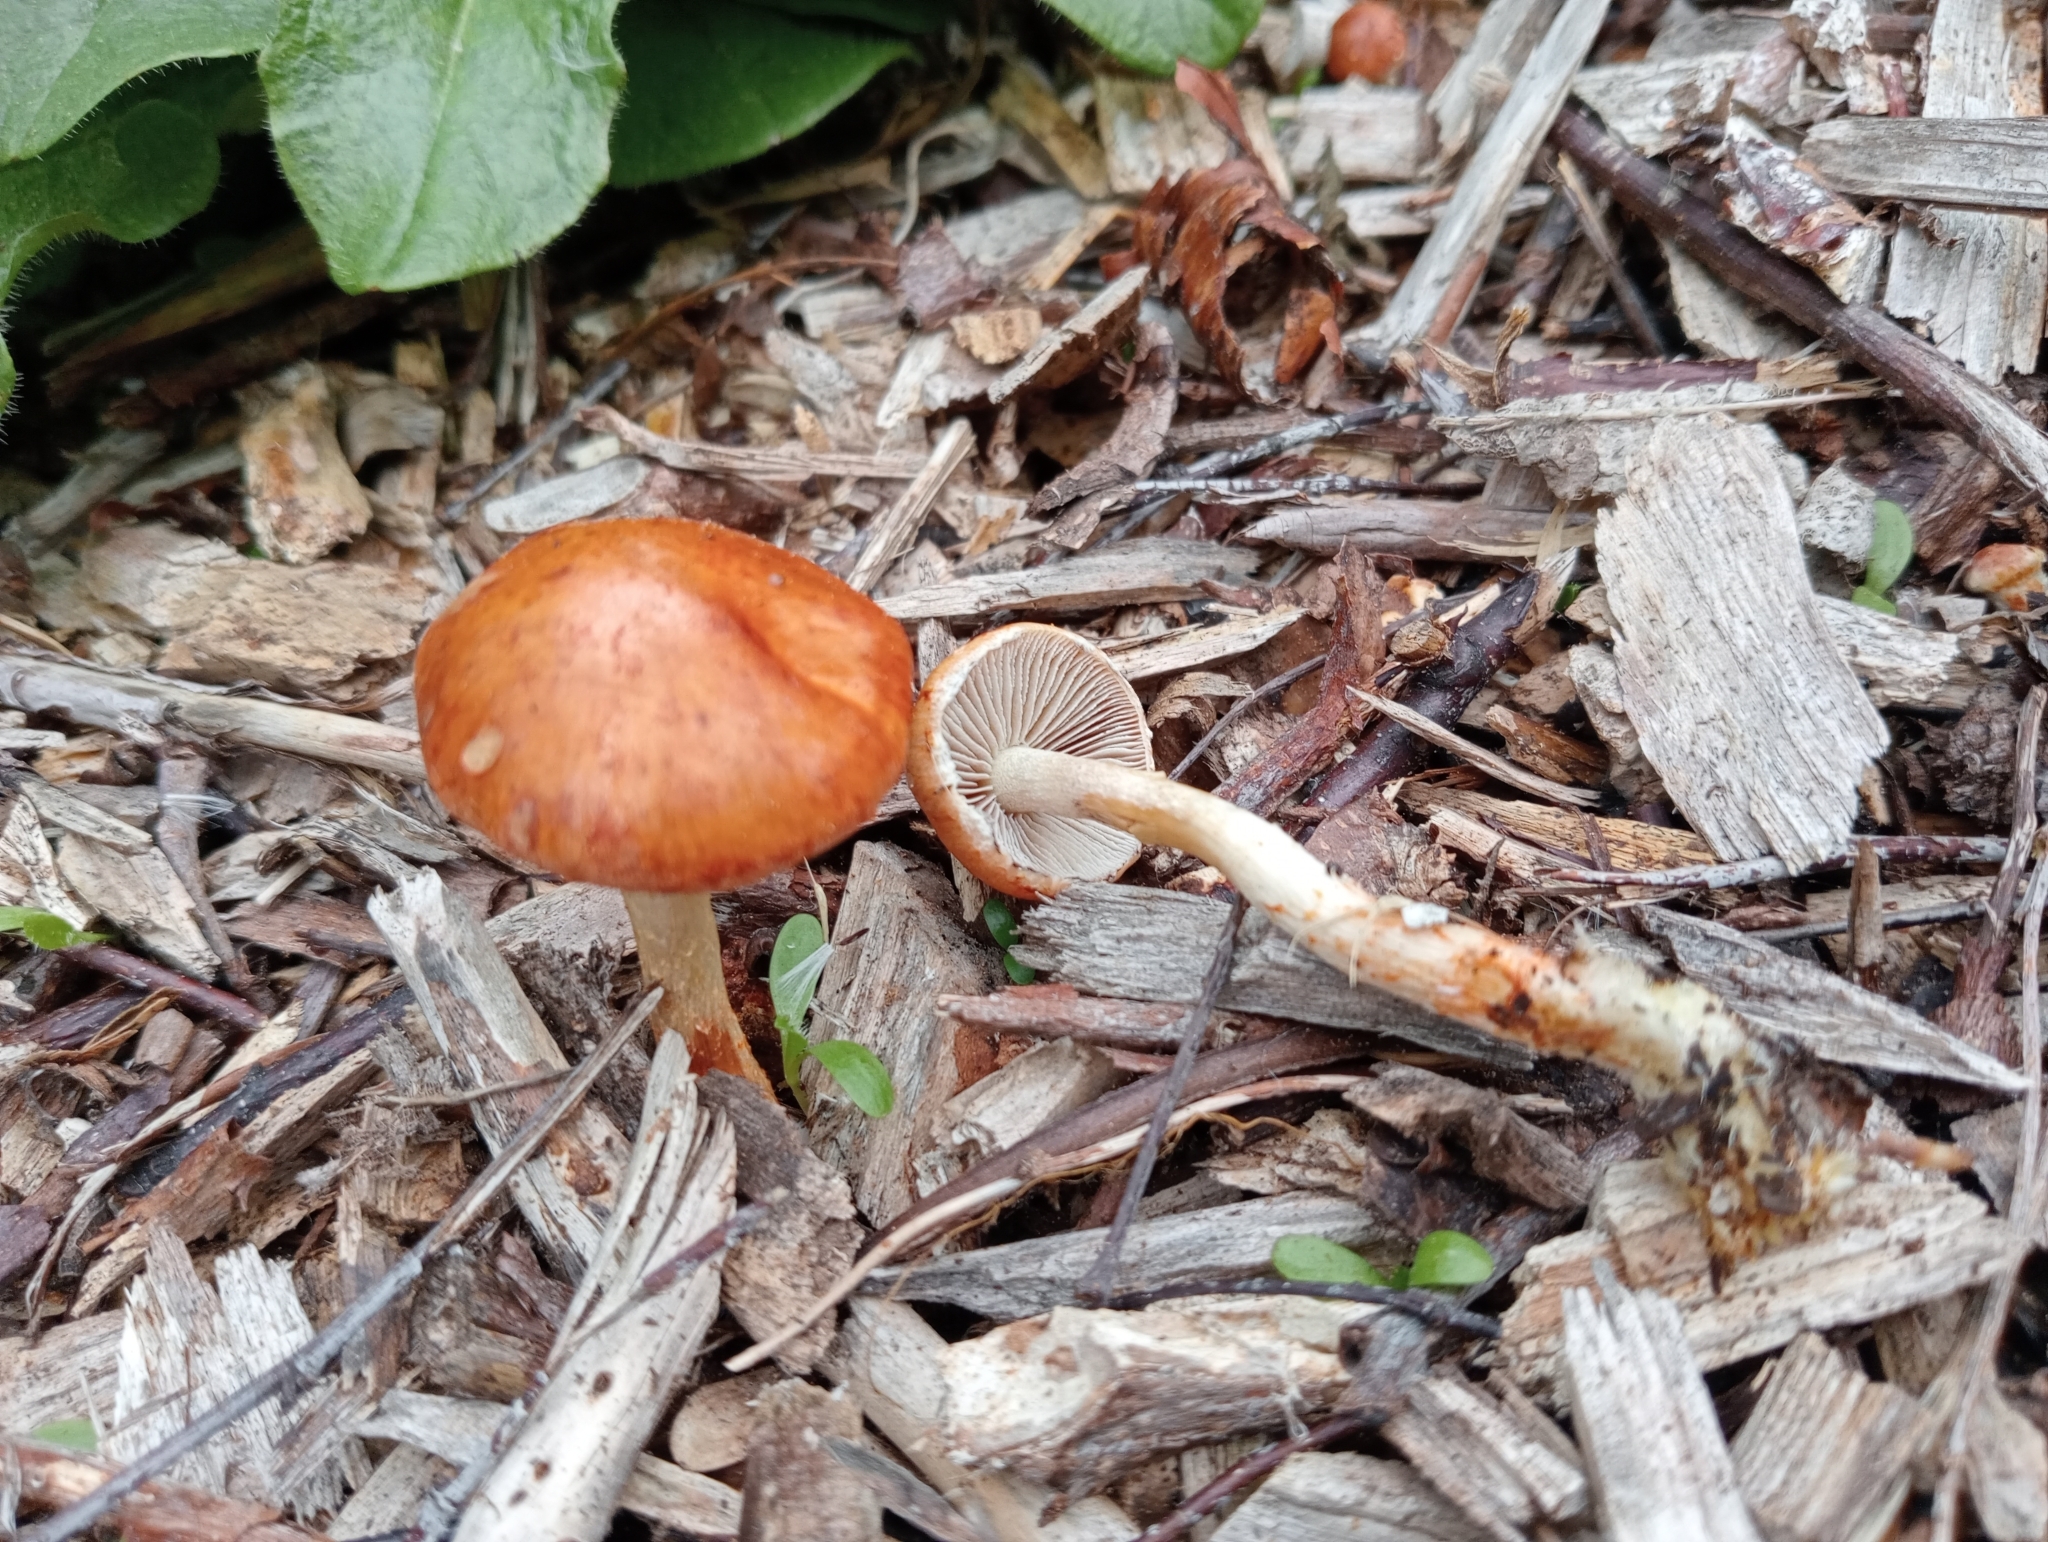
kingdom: Fungi
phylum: Basidiomycota
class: Agaricomycetes
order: Agaricales
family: Strophariaceae
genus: Leratiomyces
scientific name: Leratiomyces ceres
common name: Redlead roundhead
